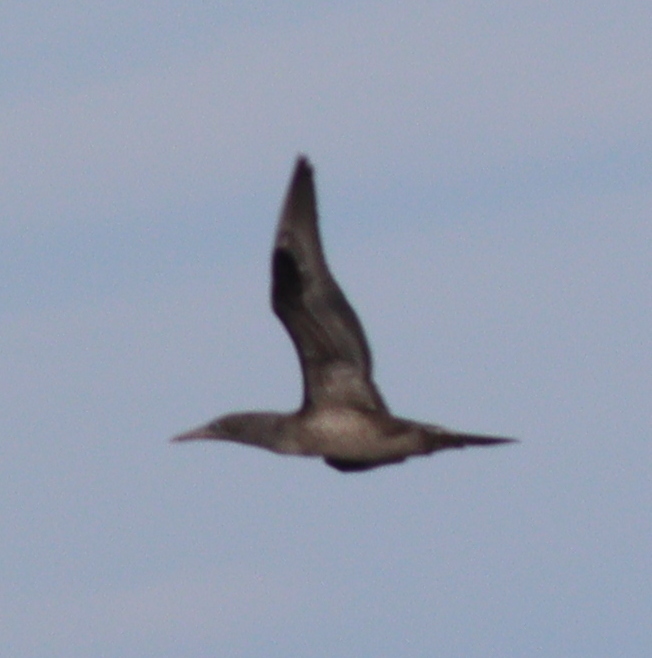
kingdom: Animalia
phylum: Chordata
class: Aves
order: Suliformes
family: Sulidae
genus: Morus
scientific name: Morus bassanus
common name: Northern gannet
